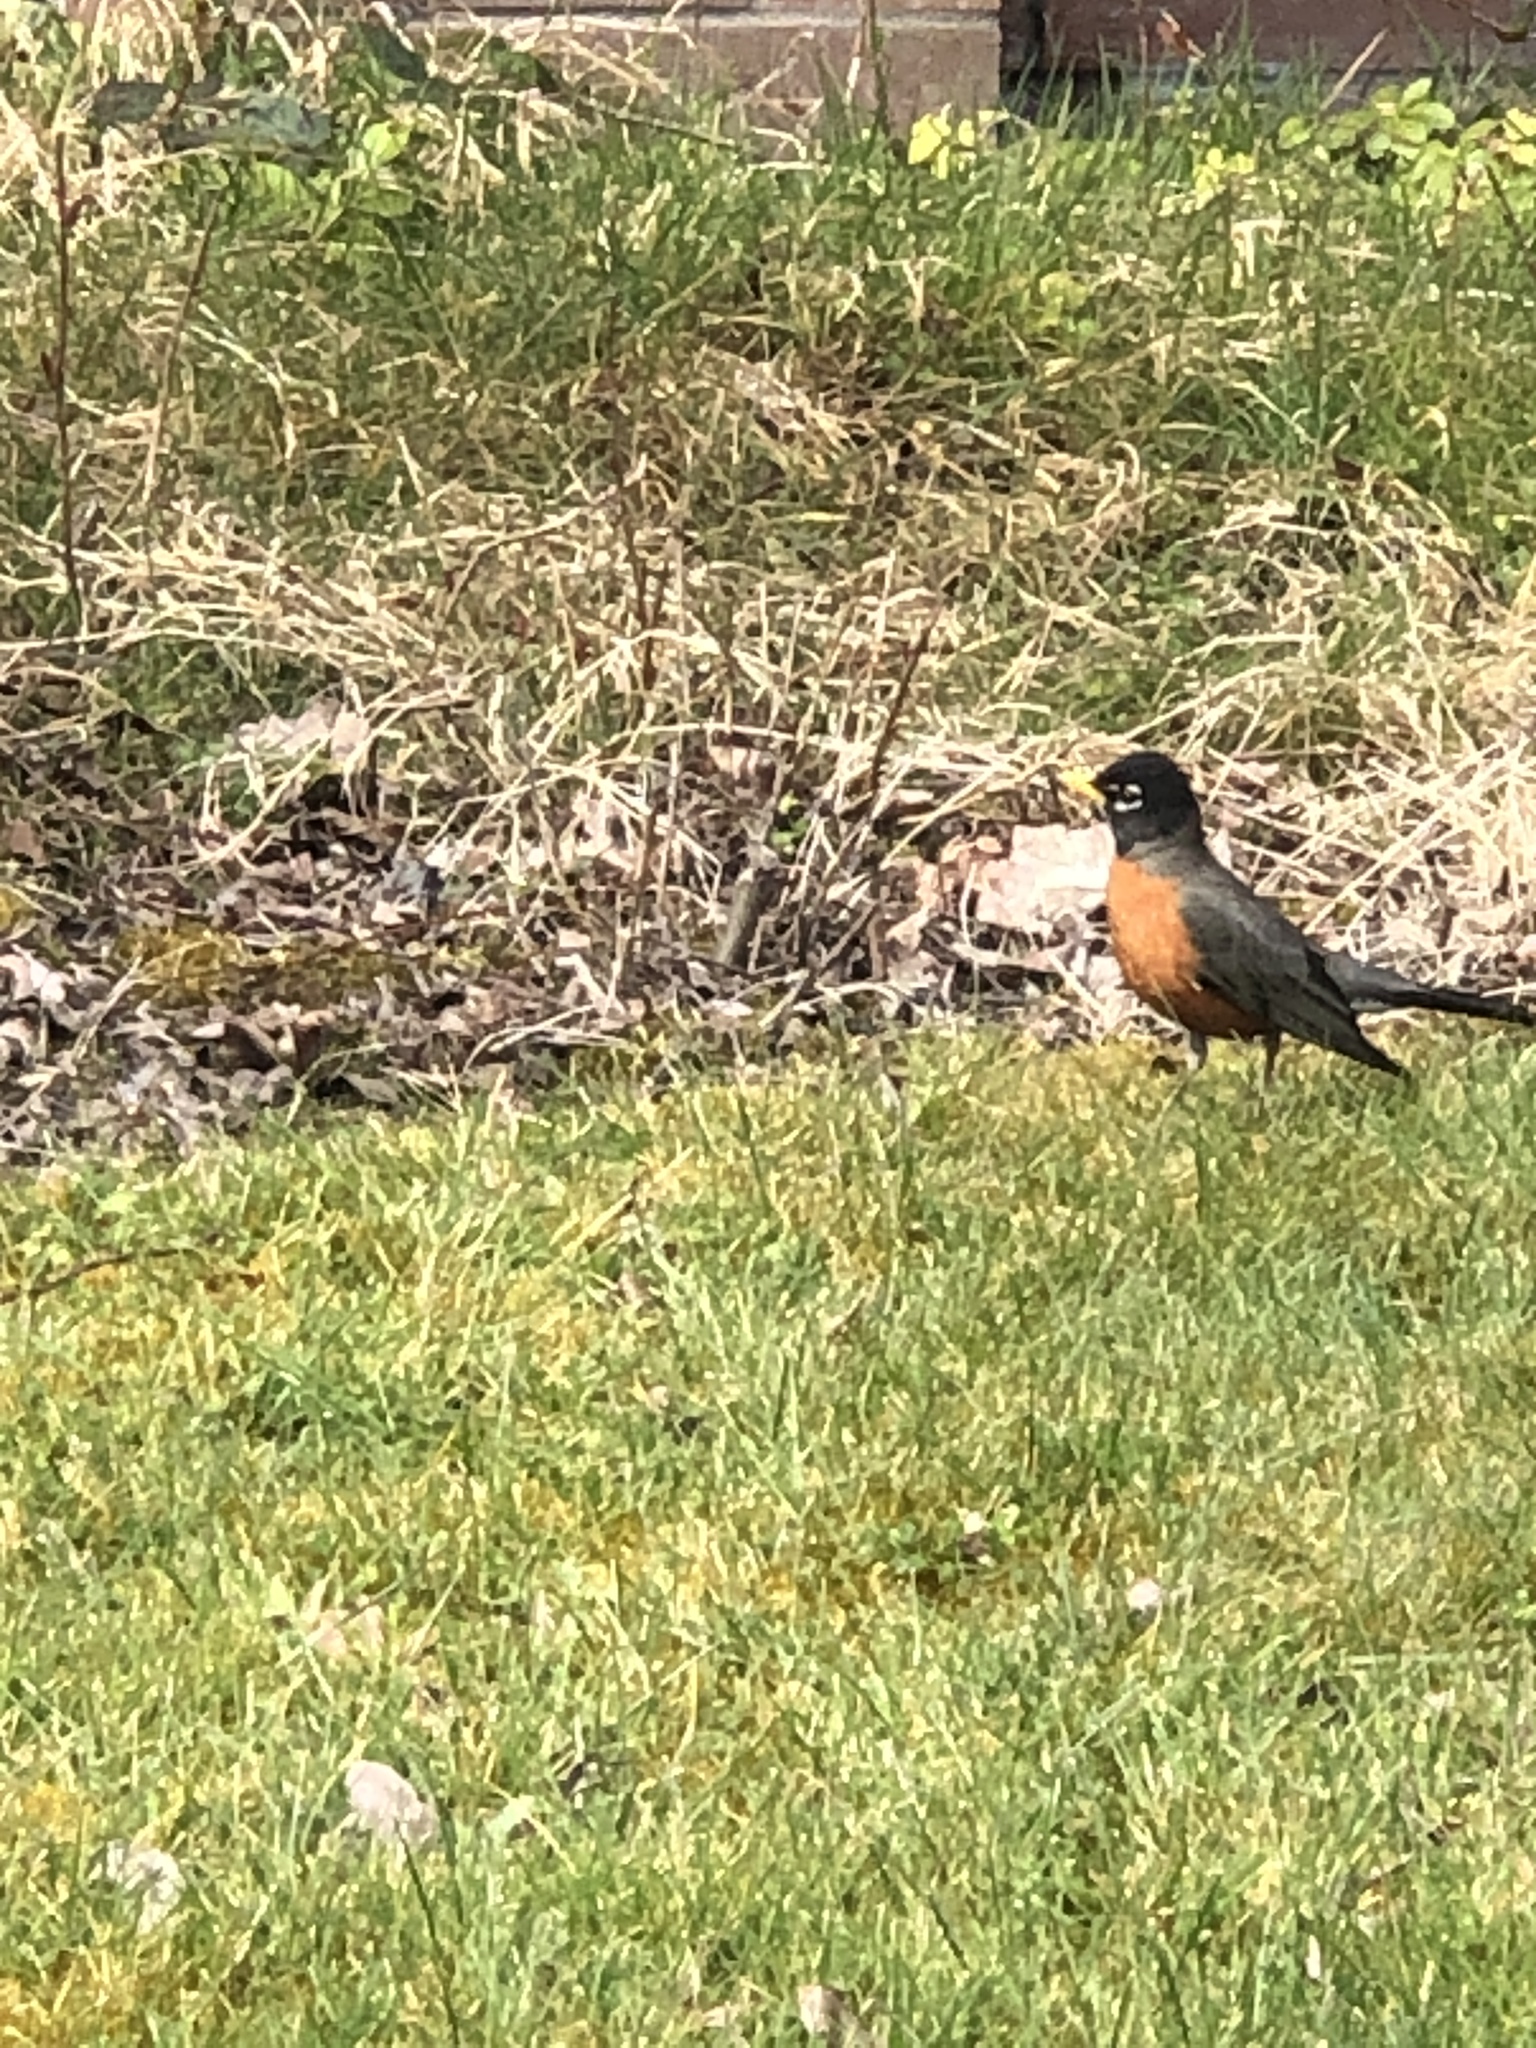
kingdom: Animalia
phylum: Chordata
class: Aves
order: Passeriformes
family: Turdidae
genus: Turdus
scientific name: Turdus migratorius
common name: American robin
